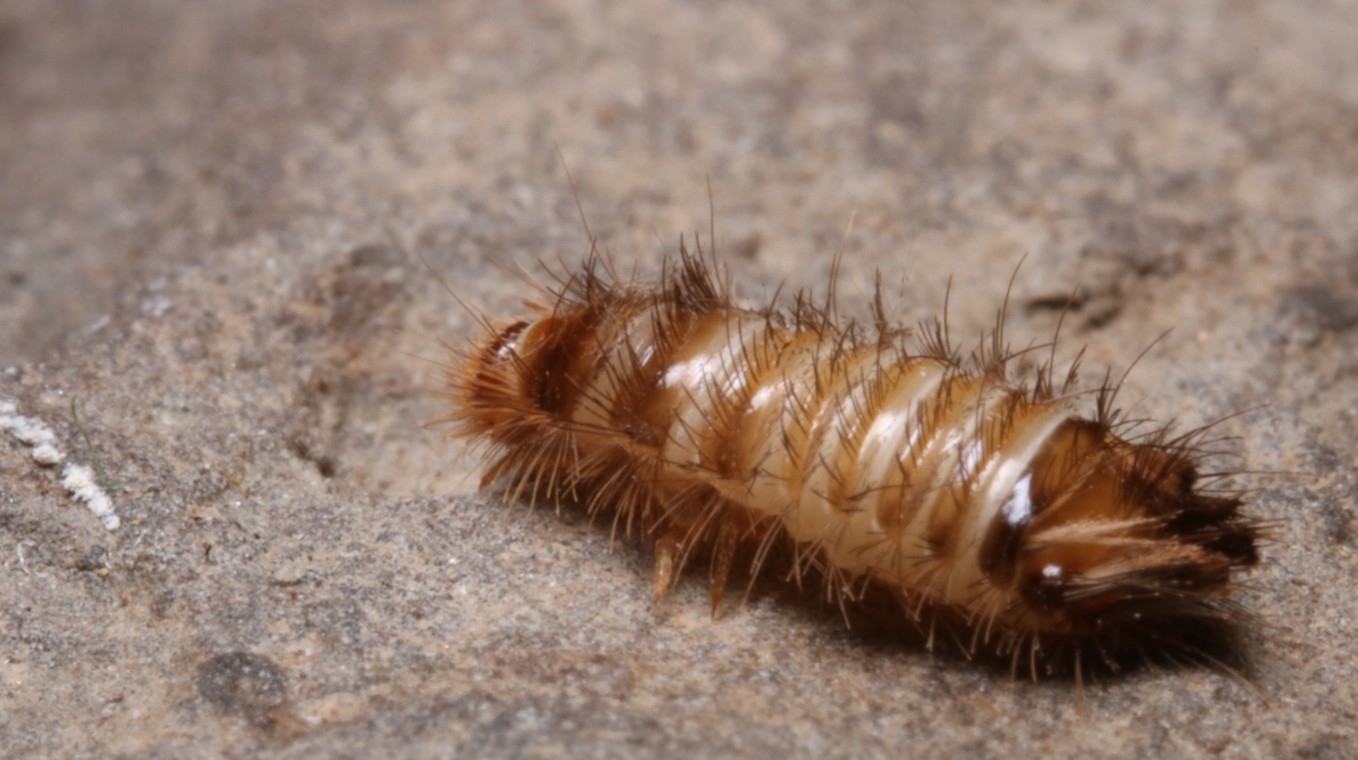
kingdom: Animalia
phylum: Arthropoda
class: Insecta
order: Coleoptera
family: Dermestidae
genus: Anthrenus
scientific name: Anthrenus verbasci
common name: Varied carpet beetle
